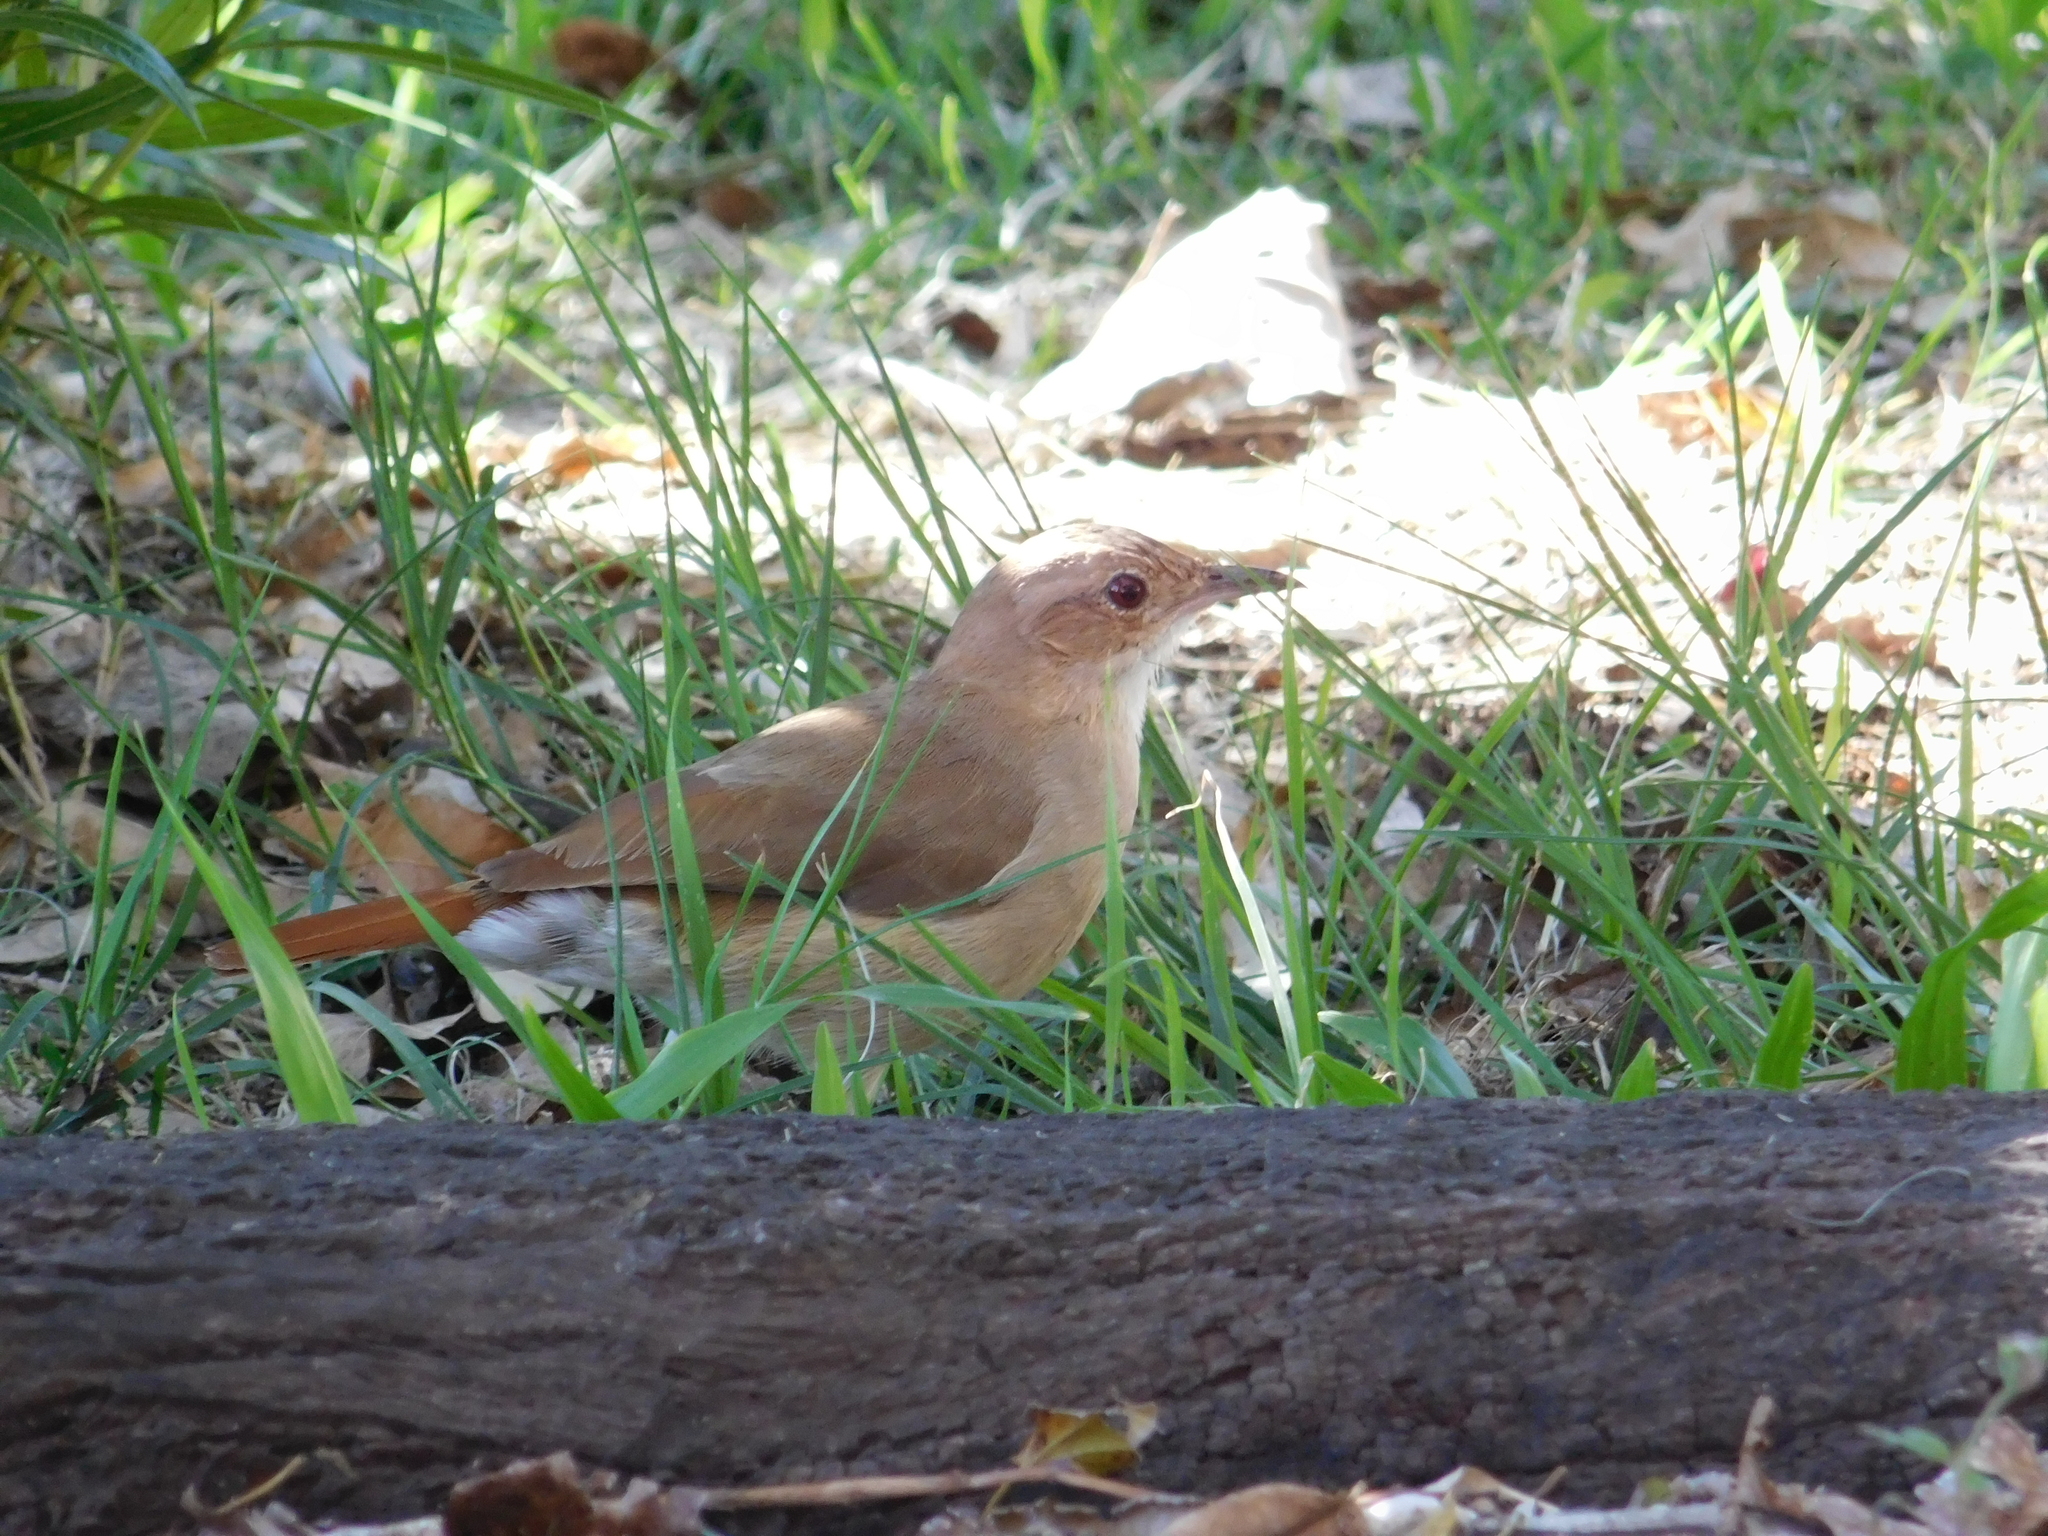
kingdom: Animalia
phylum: Chordata
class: Aves
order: Passeriformes
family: Furnariidae
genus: Furnarius
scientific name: Furnarius rufus
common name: Rufous hornero
